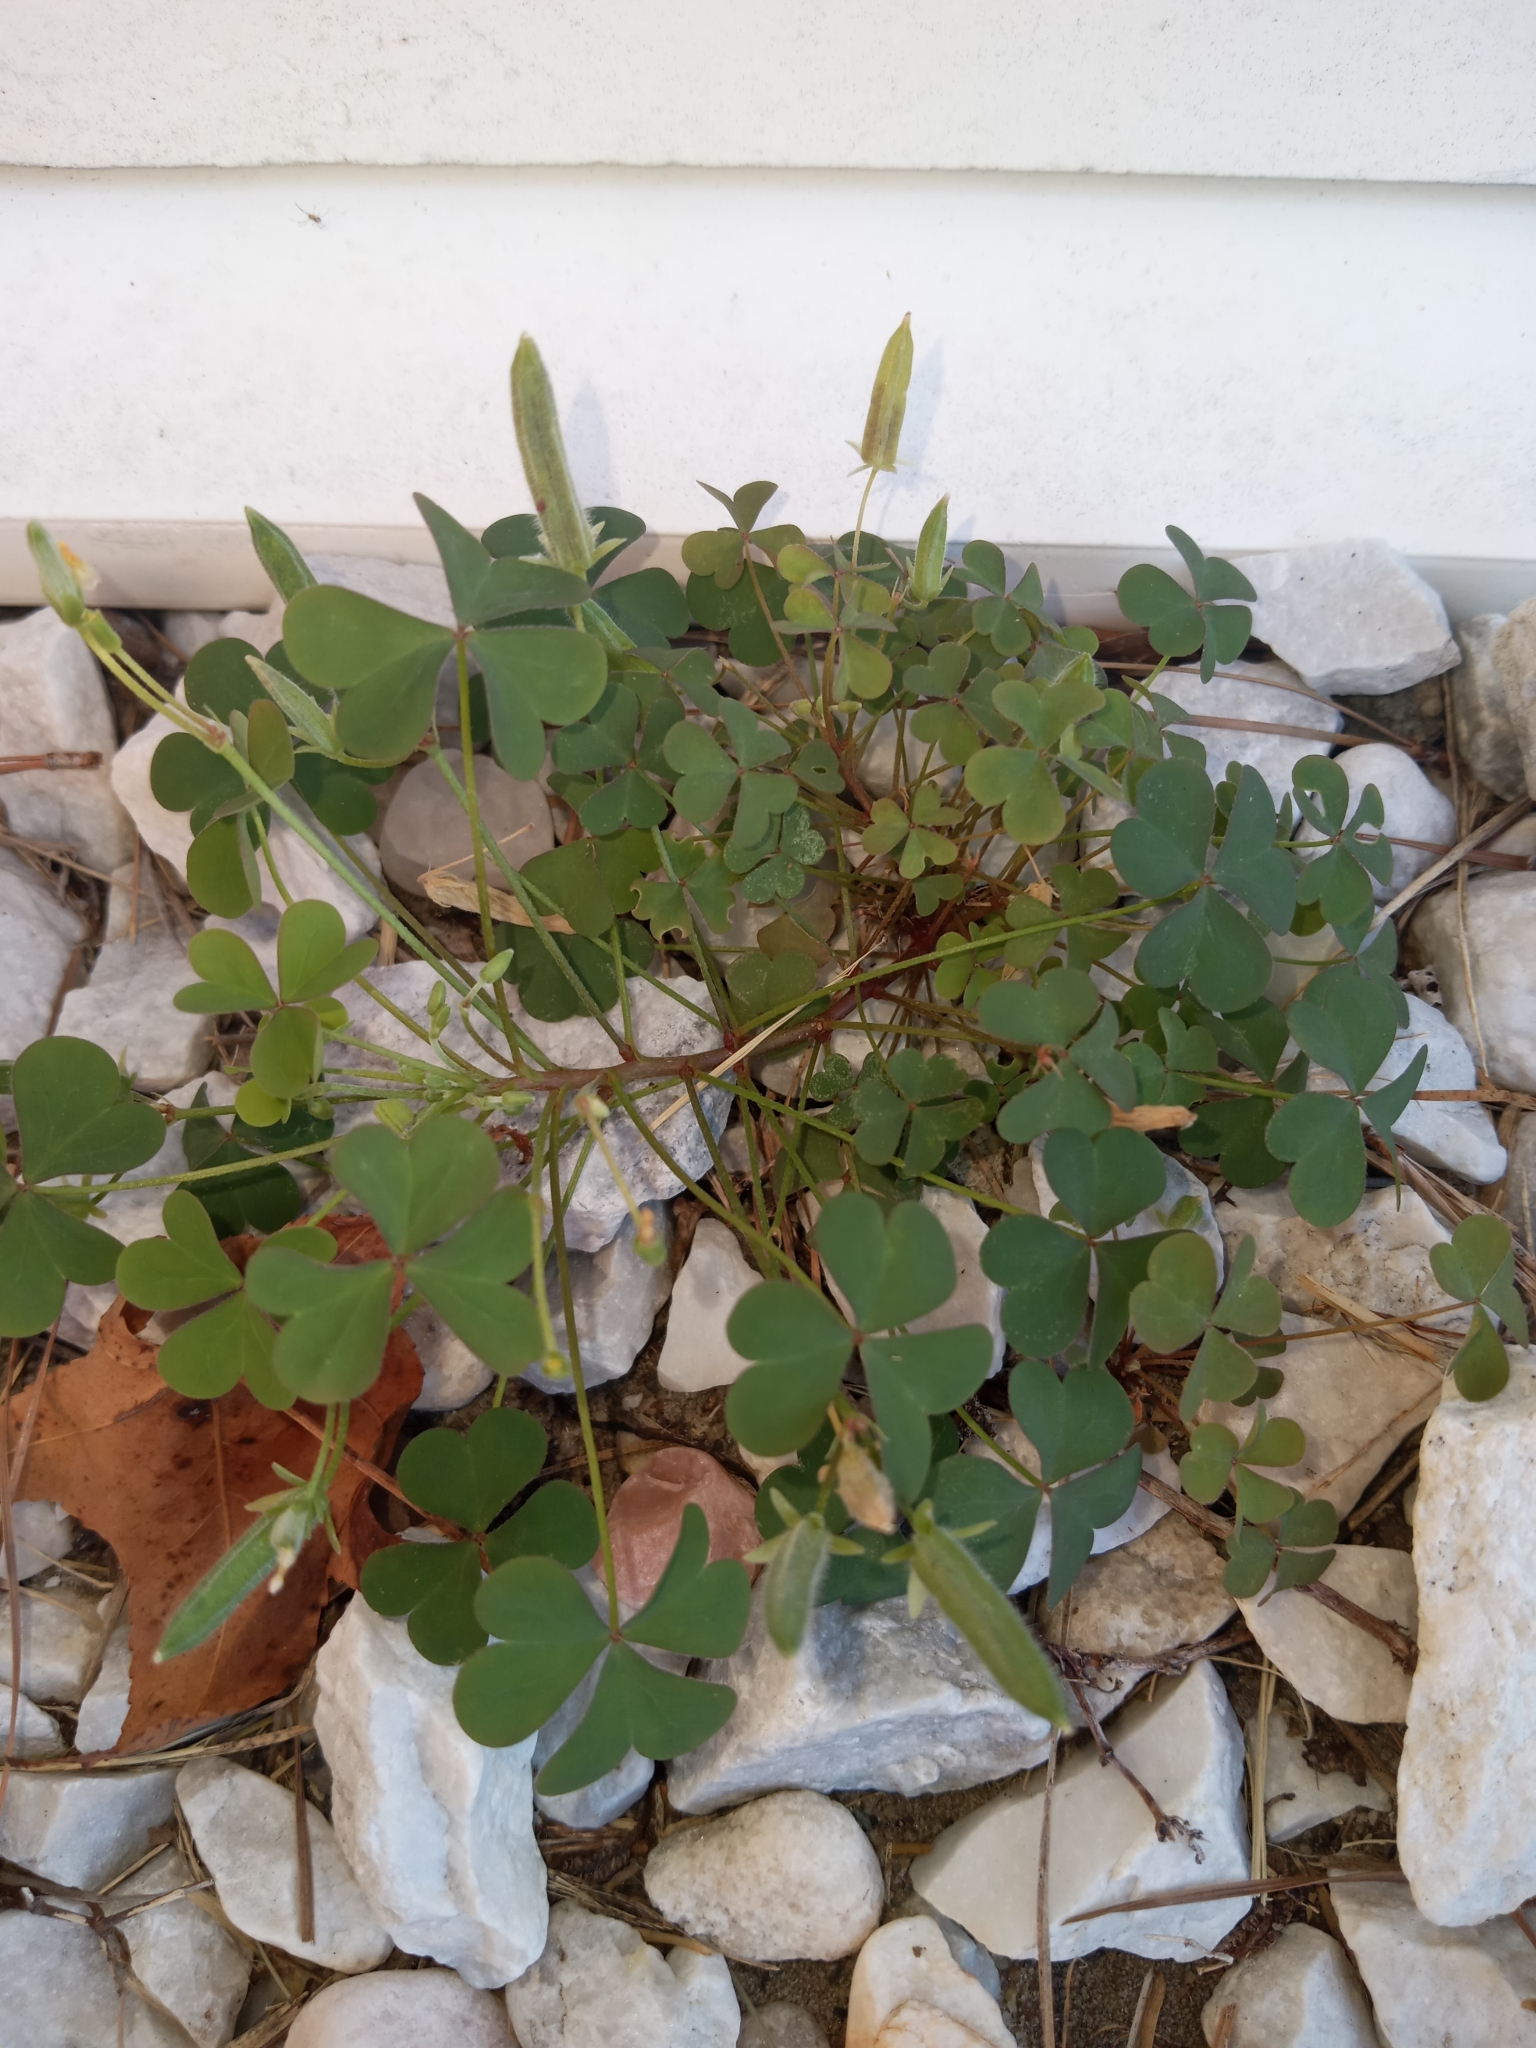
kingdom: Plantae
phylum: Tracheophyta
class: Magnoliopsida
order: Oxalidales
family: Oxalidaceae
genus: Oxalis
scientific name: Oxalis corniculata
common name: Procumbent yellow-sorrel
